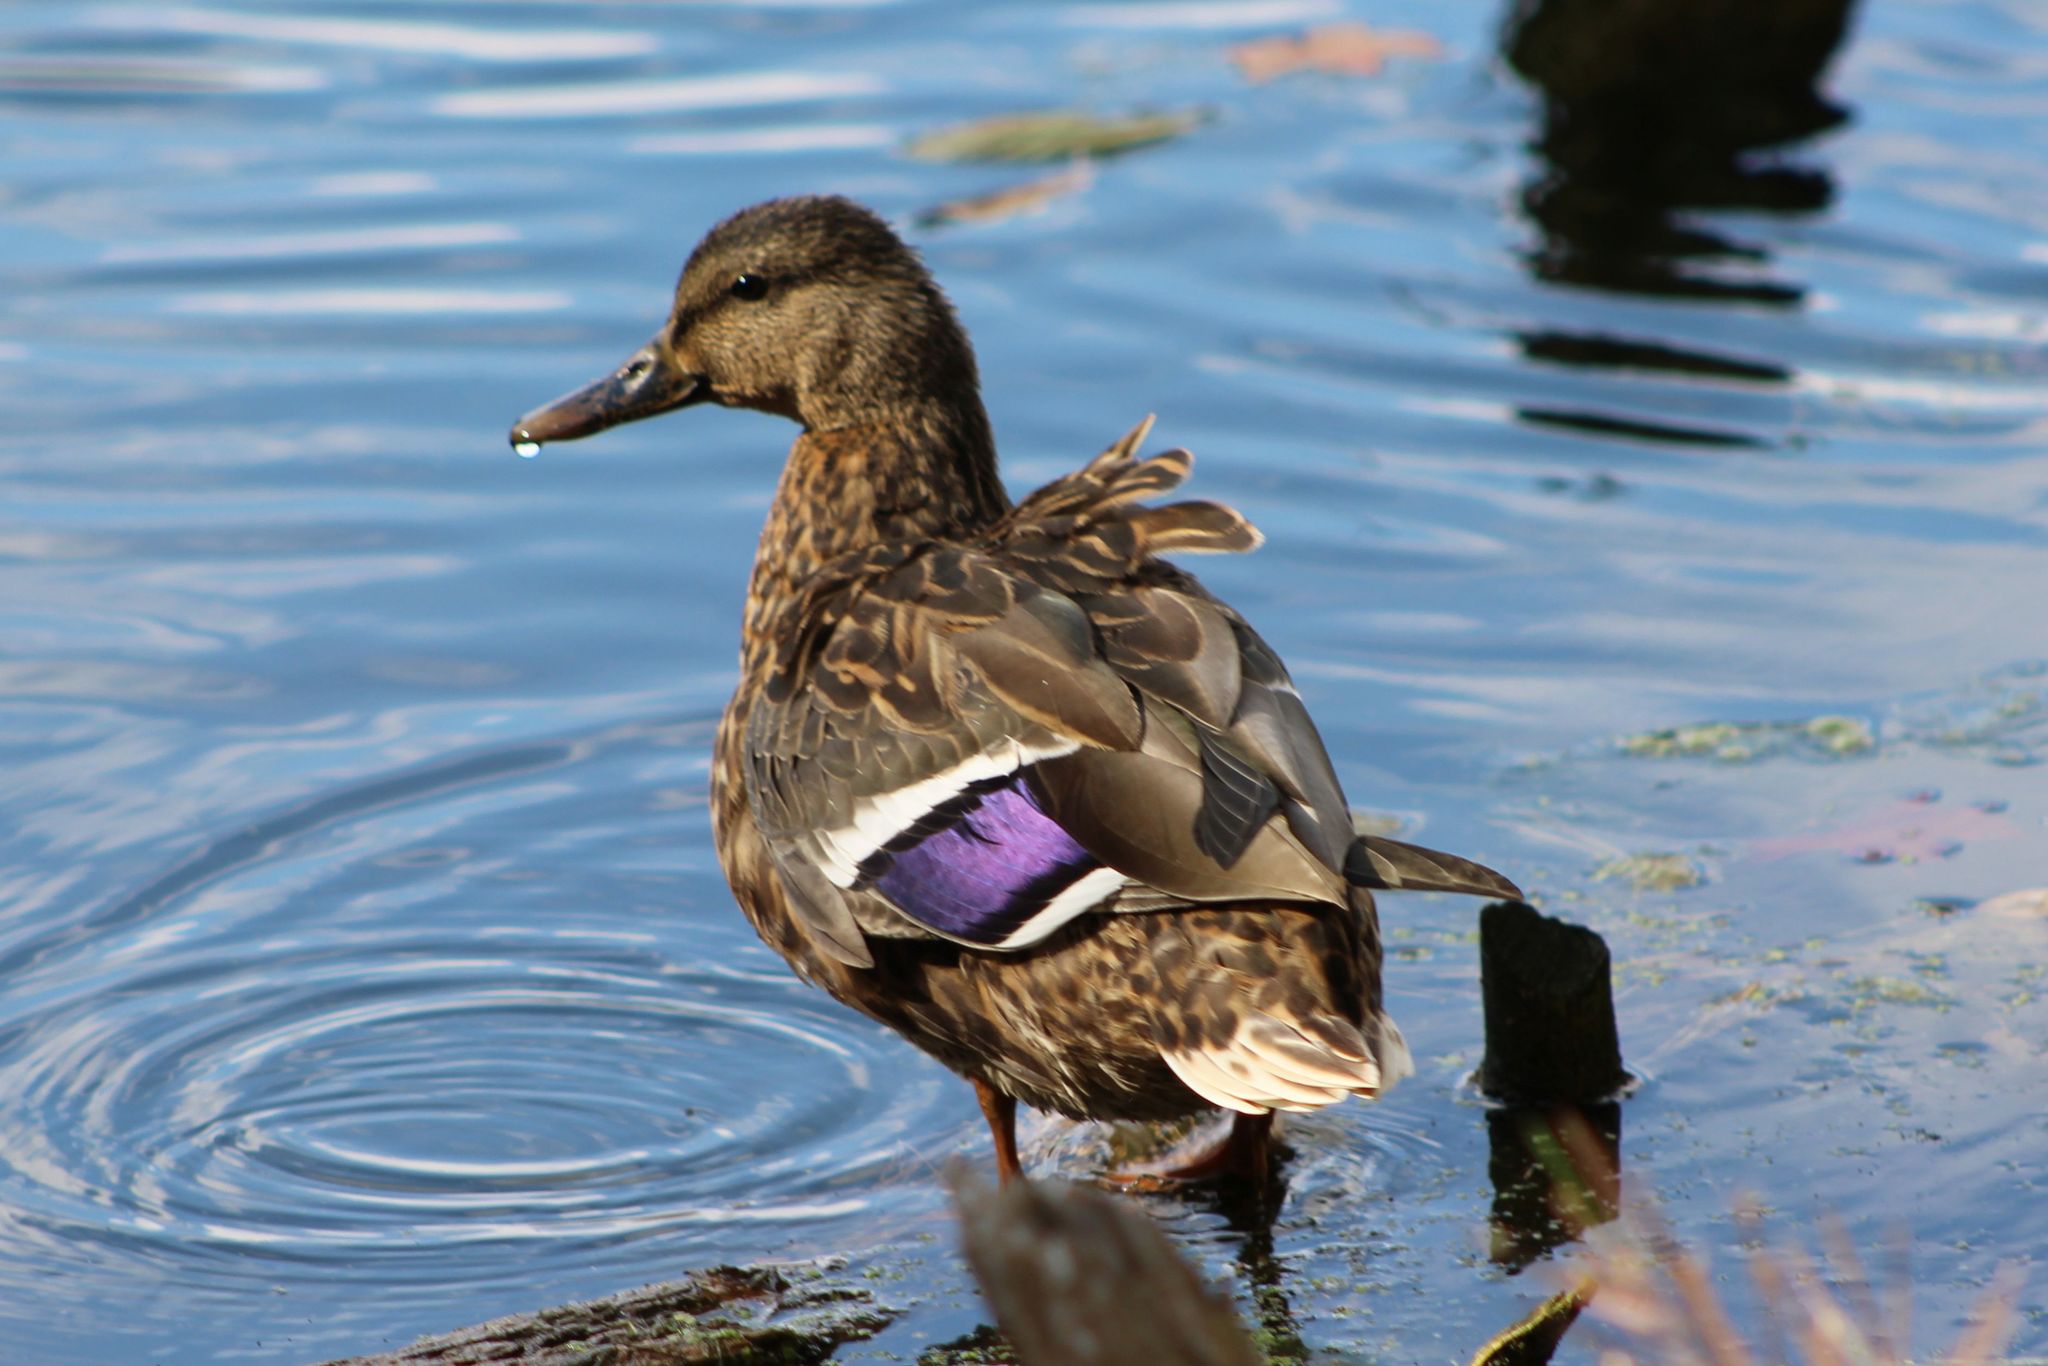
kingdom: Animalia
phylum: Chordata
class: Aves
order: Anseriformes
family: Anatidae
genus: Anas
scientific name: Anas platyrhynchos
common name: Mallard
